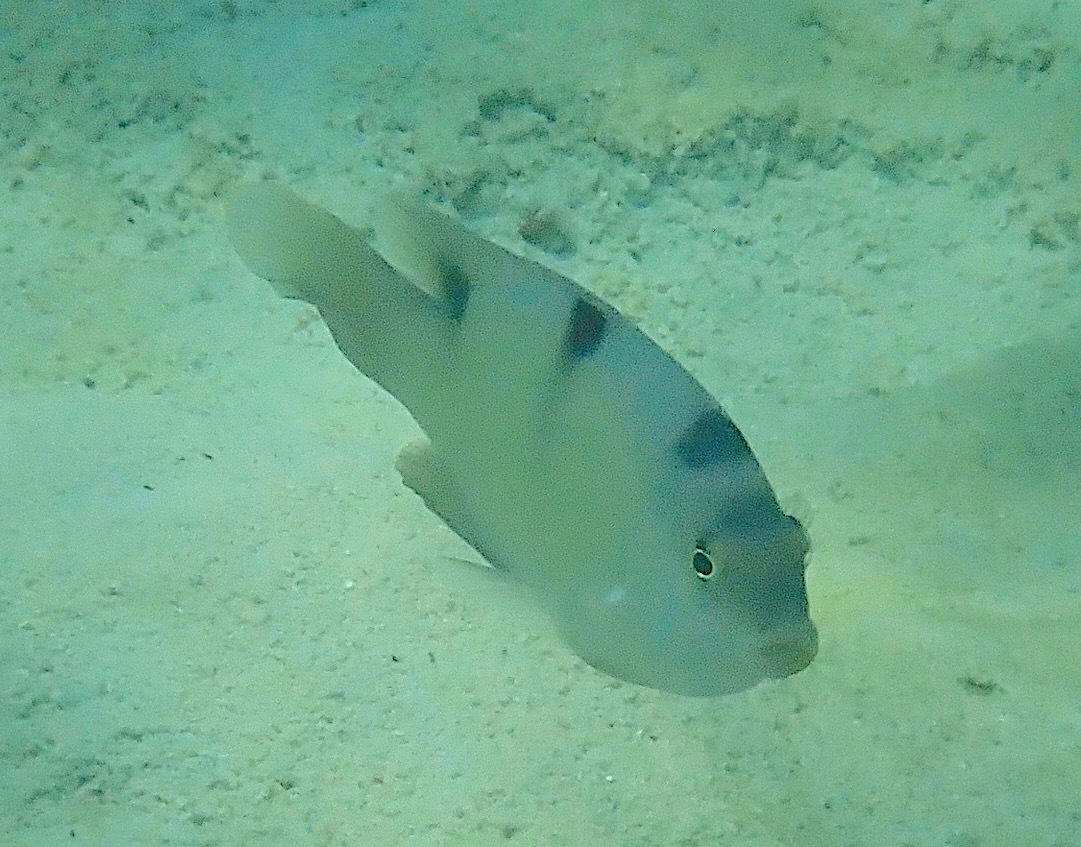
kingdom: Animalia
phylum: Chordata
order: Perciformes
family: Pomacentridae
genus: Dischistodus
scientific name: Dischistodus perspicillatus
